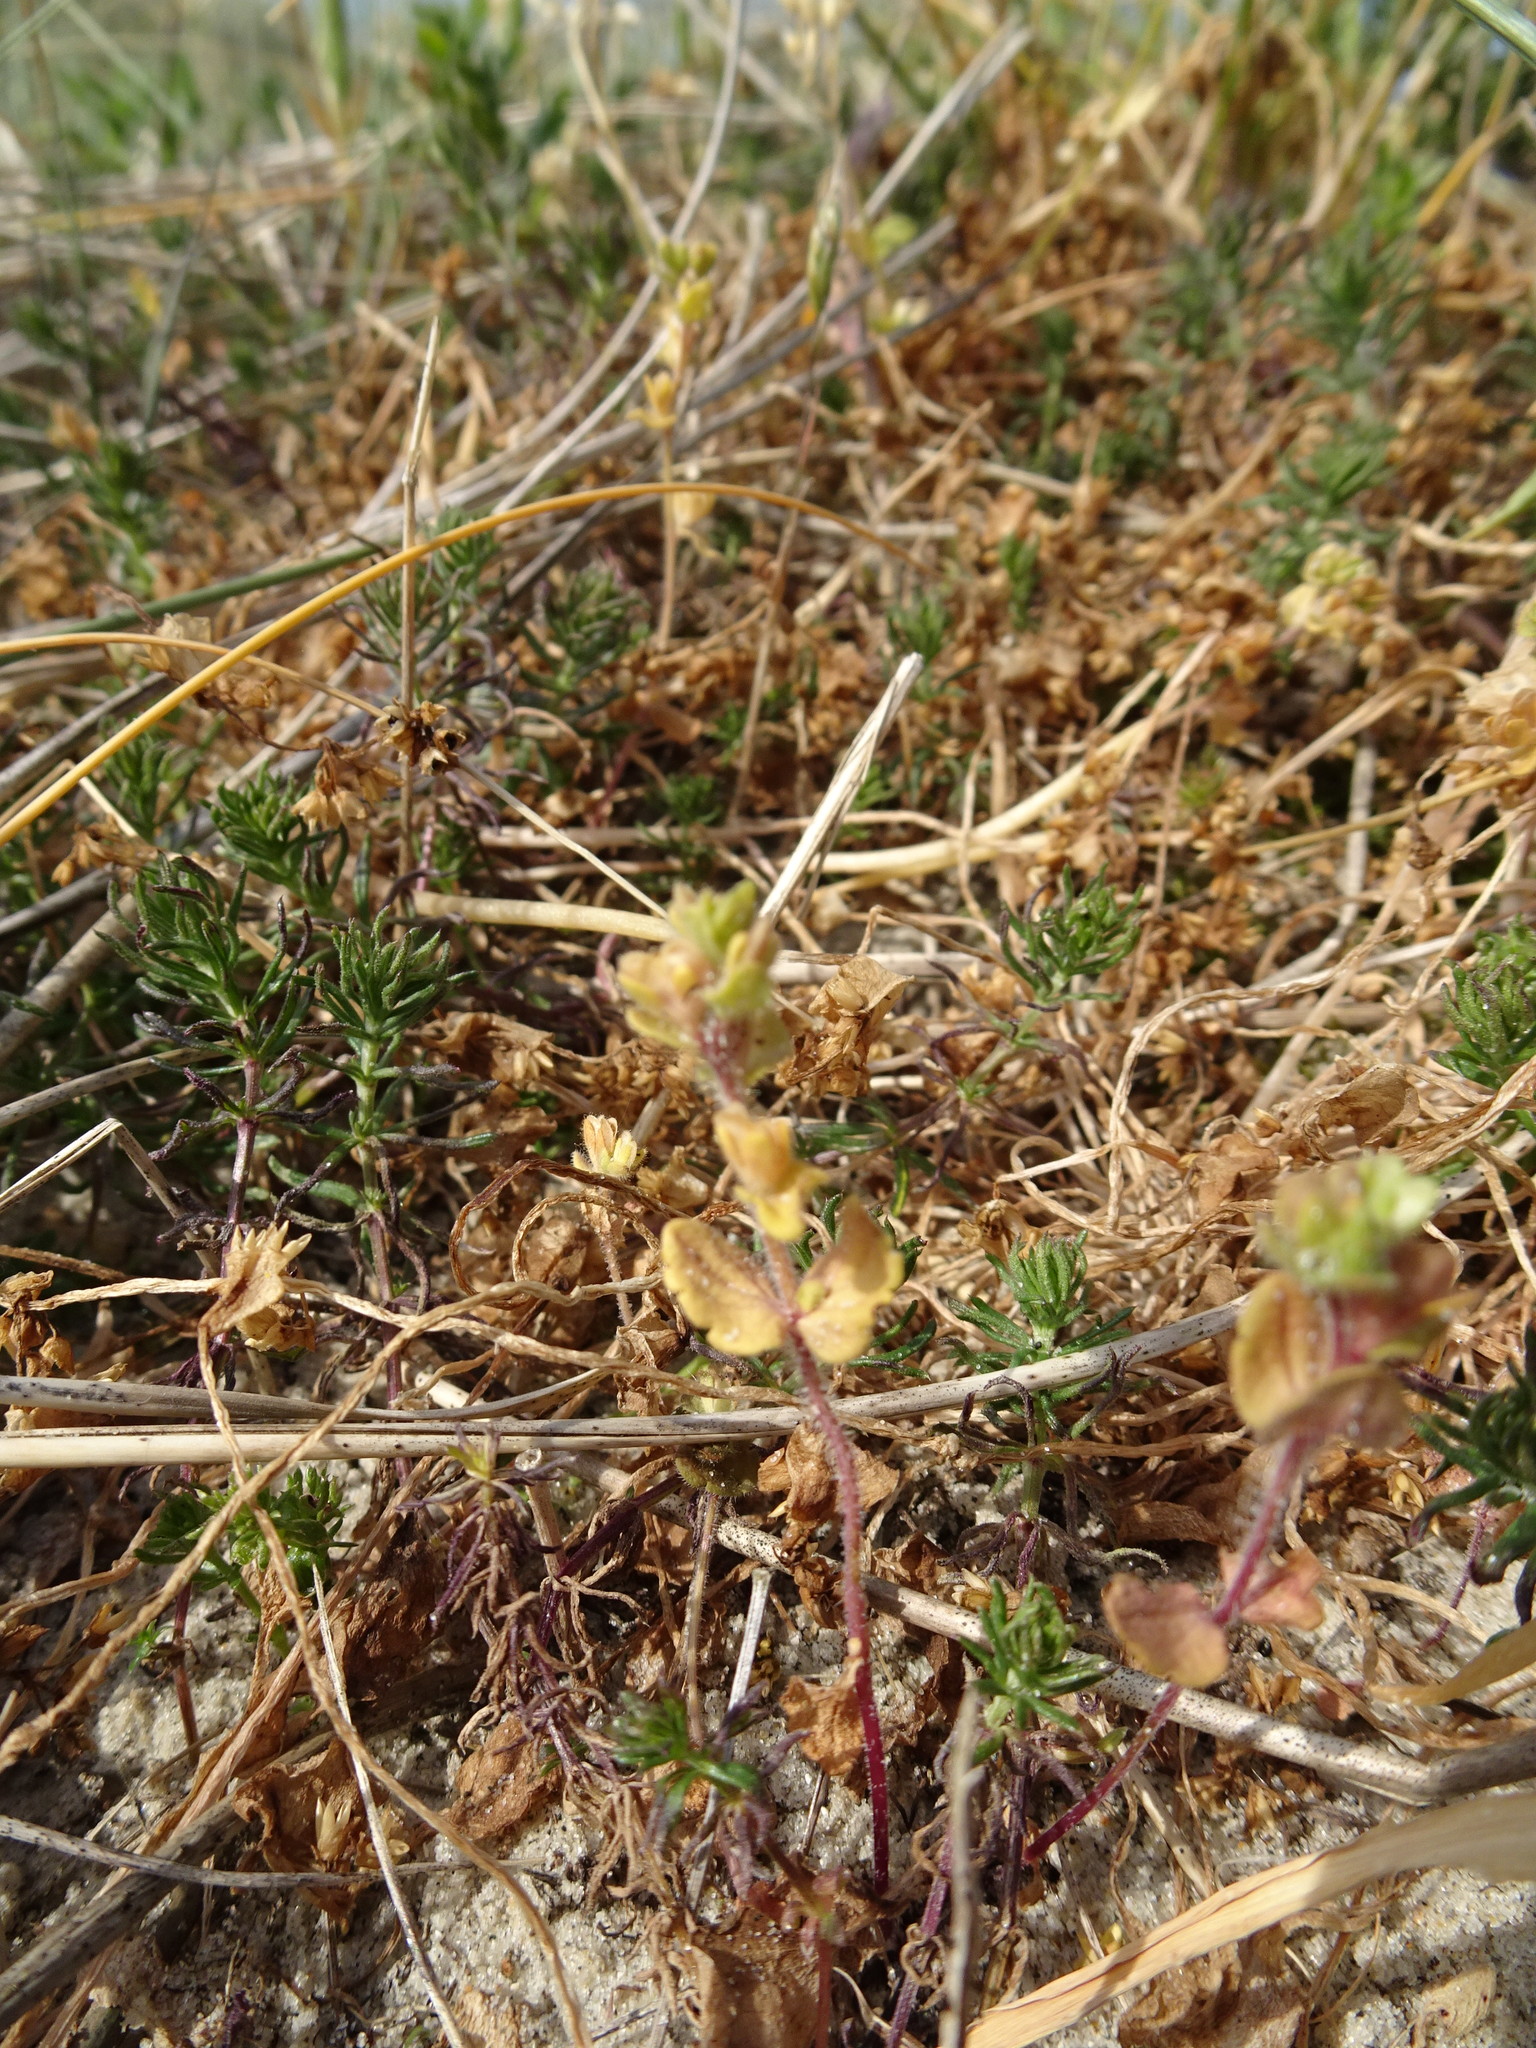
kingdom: Plantae
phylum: Tracheophyta
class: Magnoliopsida
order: Lamiales
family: Plantaginaceae
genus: Veronica
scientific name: Veronica arvensis
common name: Corn speedwell
